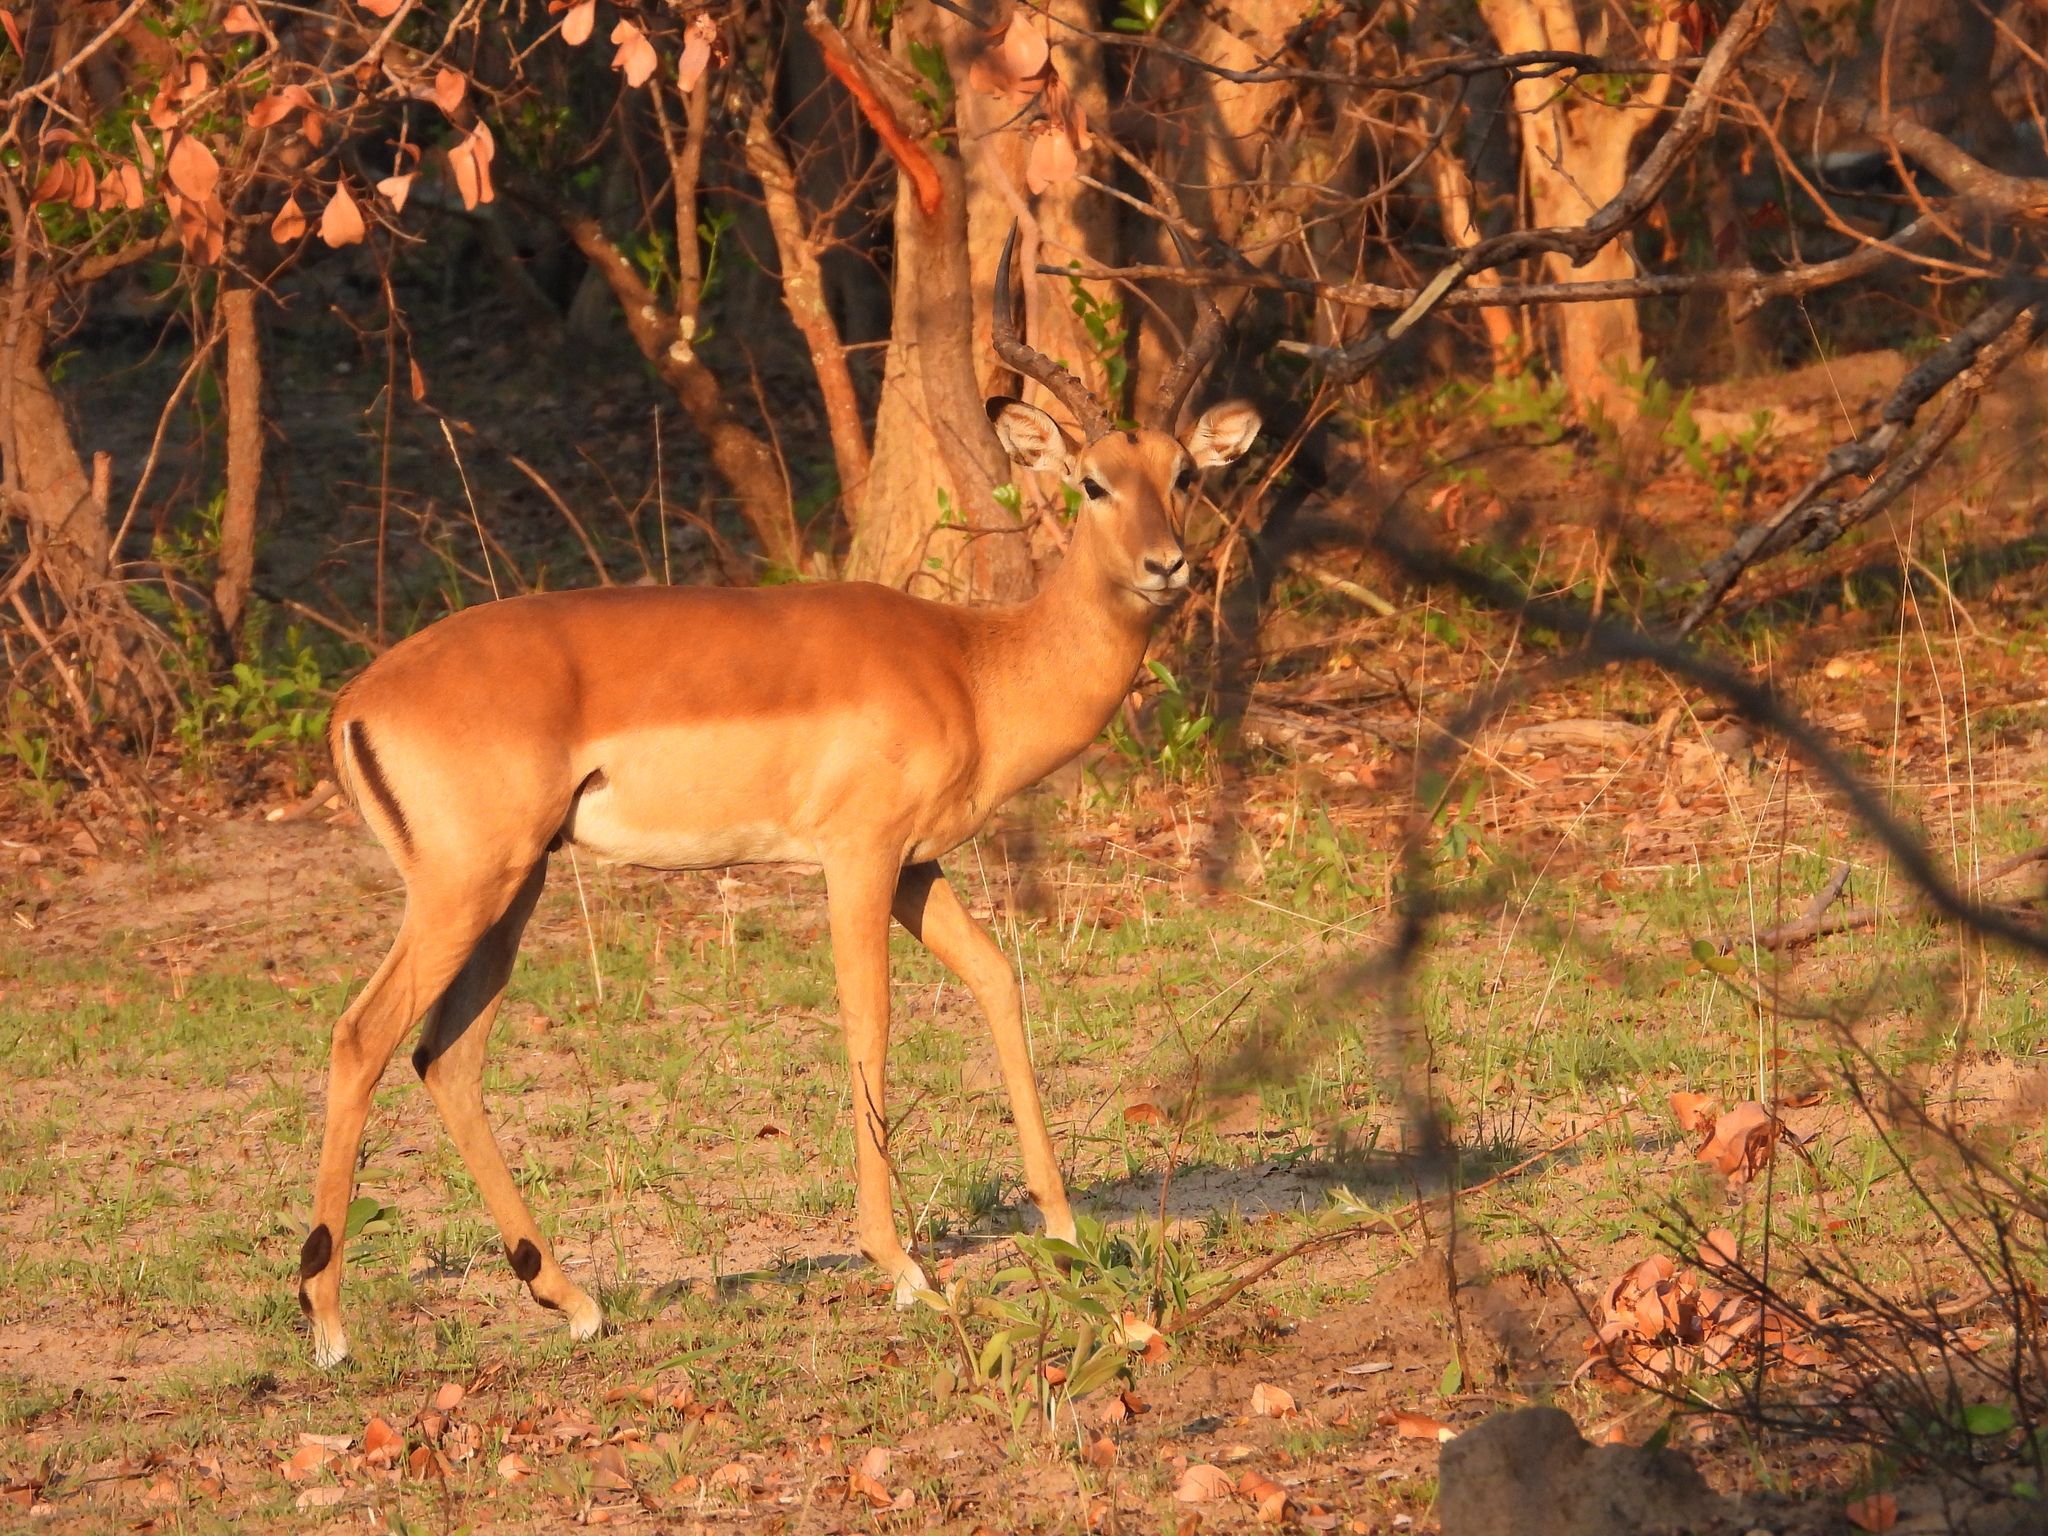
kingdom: Animalia
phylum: Chordata
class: Mammalia
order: Artiodactyla
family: Bovidae
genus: Aepyceros
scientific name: Aepyceros melampus
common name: Impala
